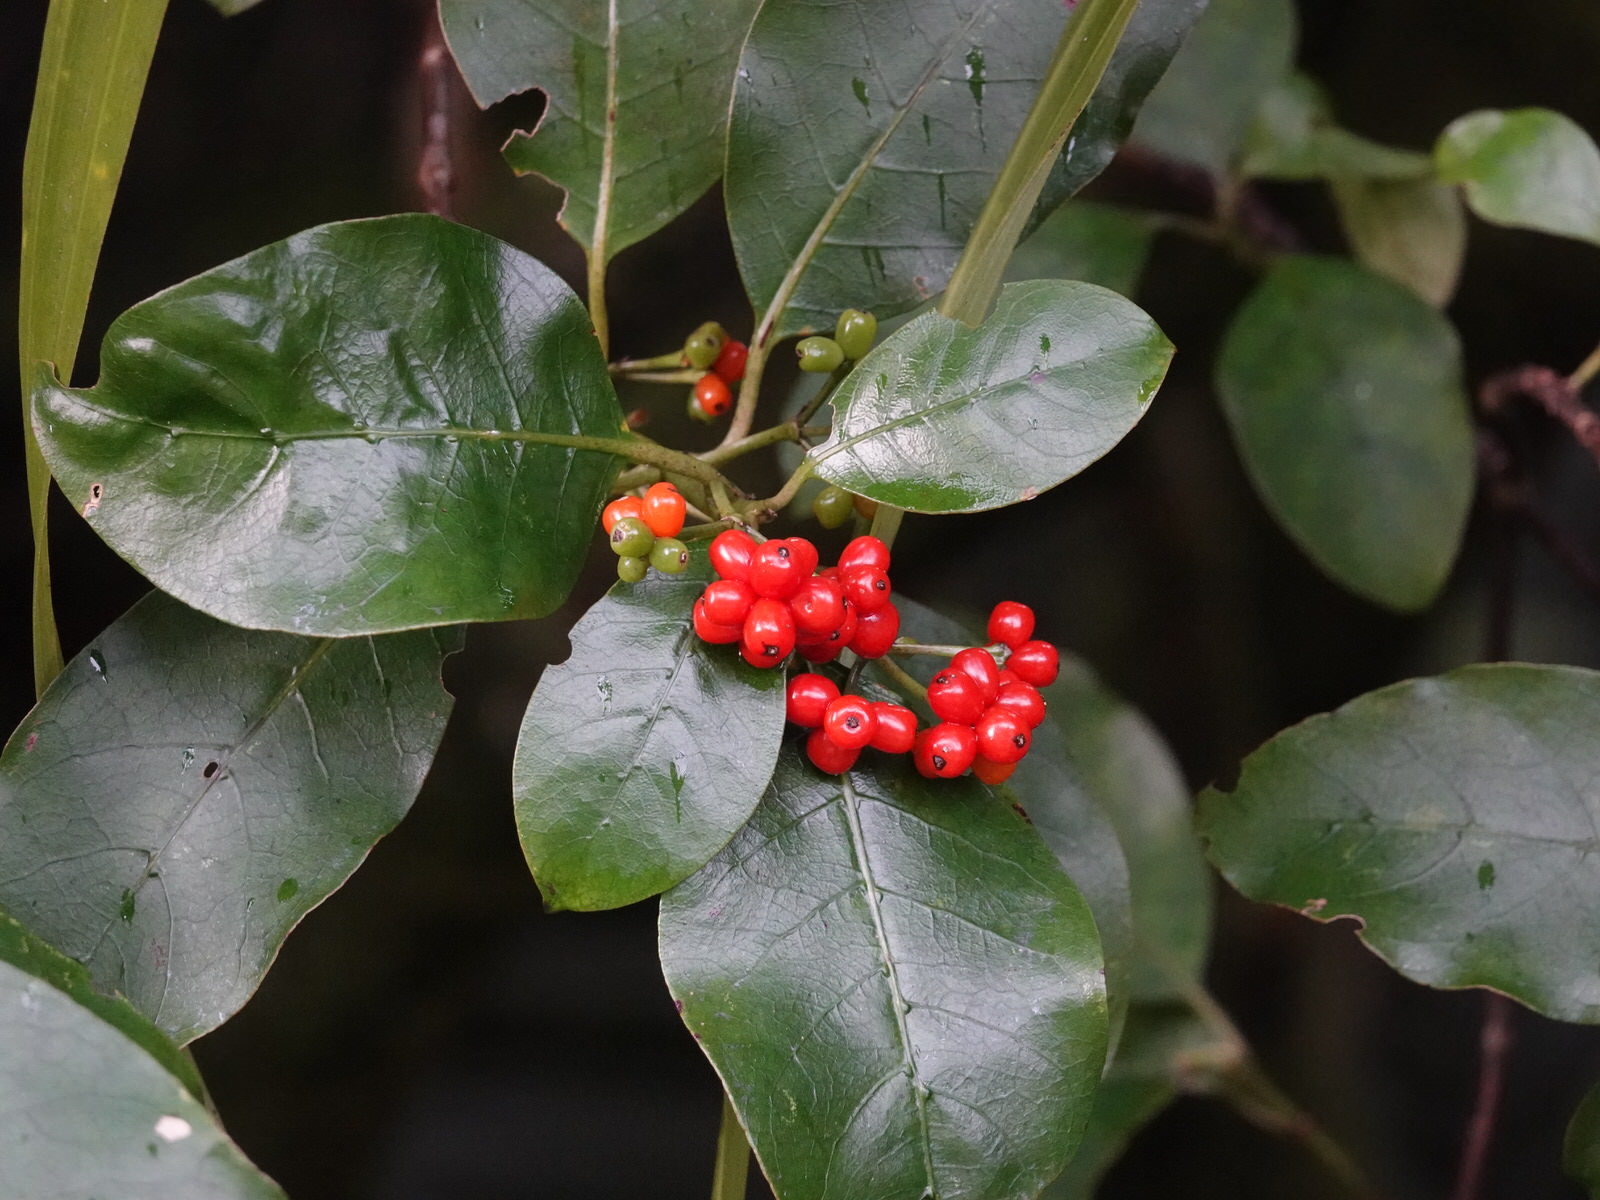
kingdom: Plantae
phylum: Tracheophyta
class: Magnoliopsida
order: Gentianales
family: Rubiaceae
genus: Coprosma
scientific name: Coprosma autumnalis
